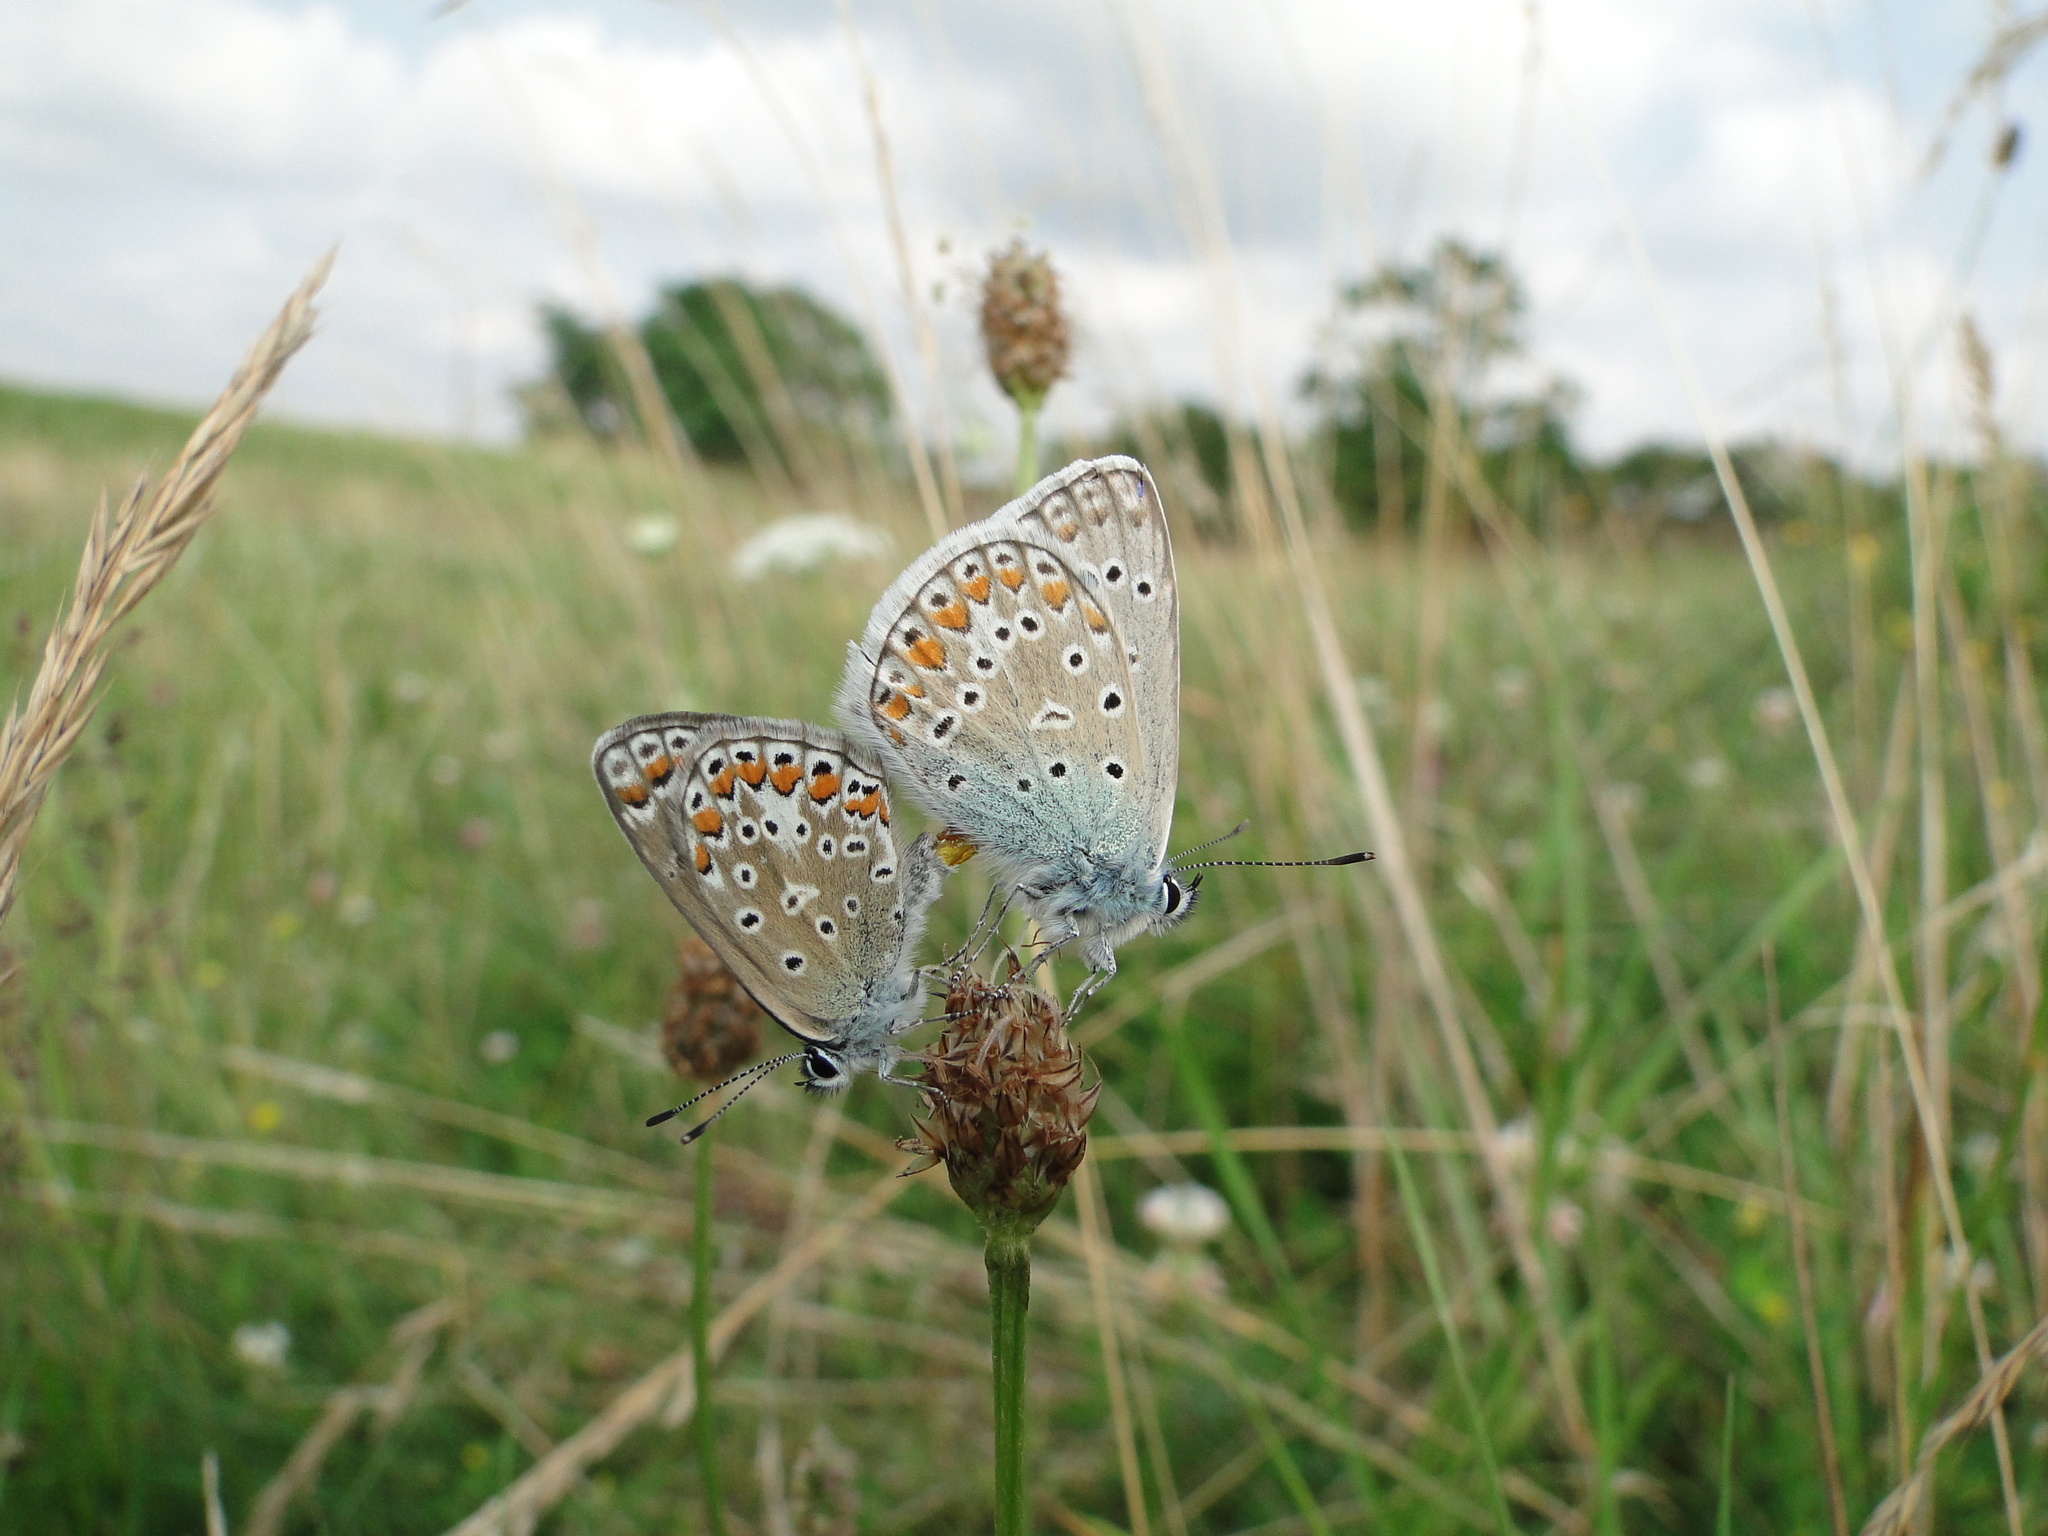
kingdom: Animalia
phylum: Arthropoda
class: Insecta
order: Lepidoptera
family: Lycaenidae
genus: Polyommatus
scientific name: Polyommatus icarus
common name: Common blue
